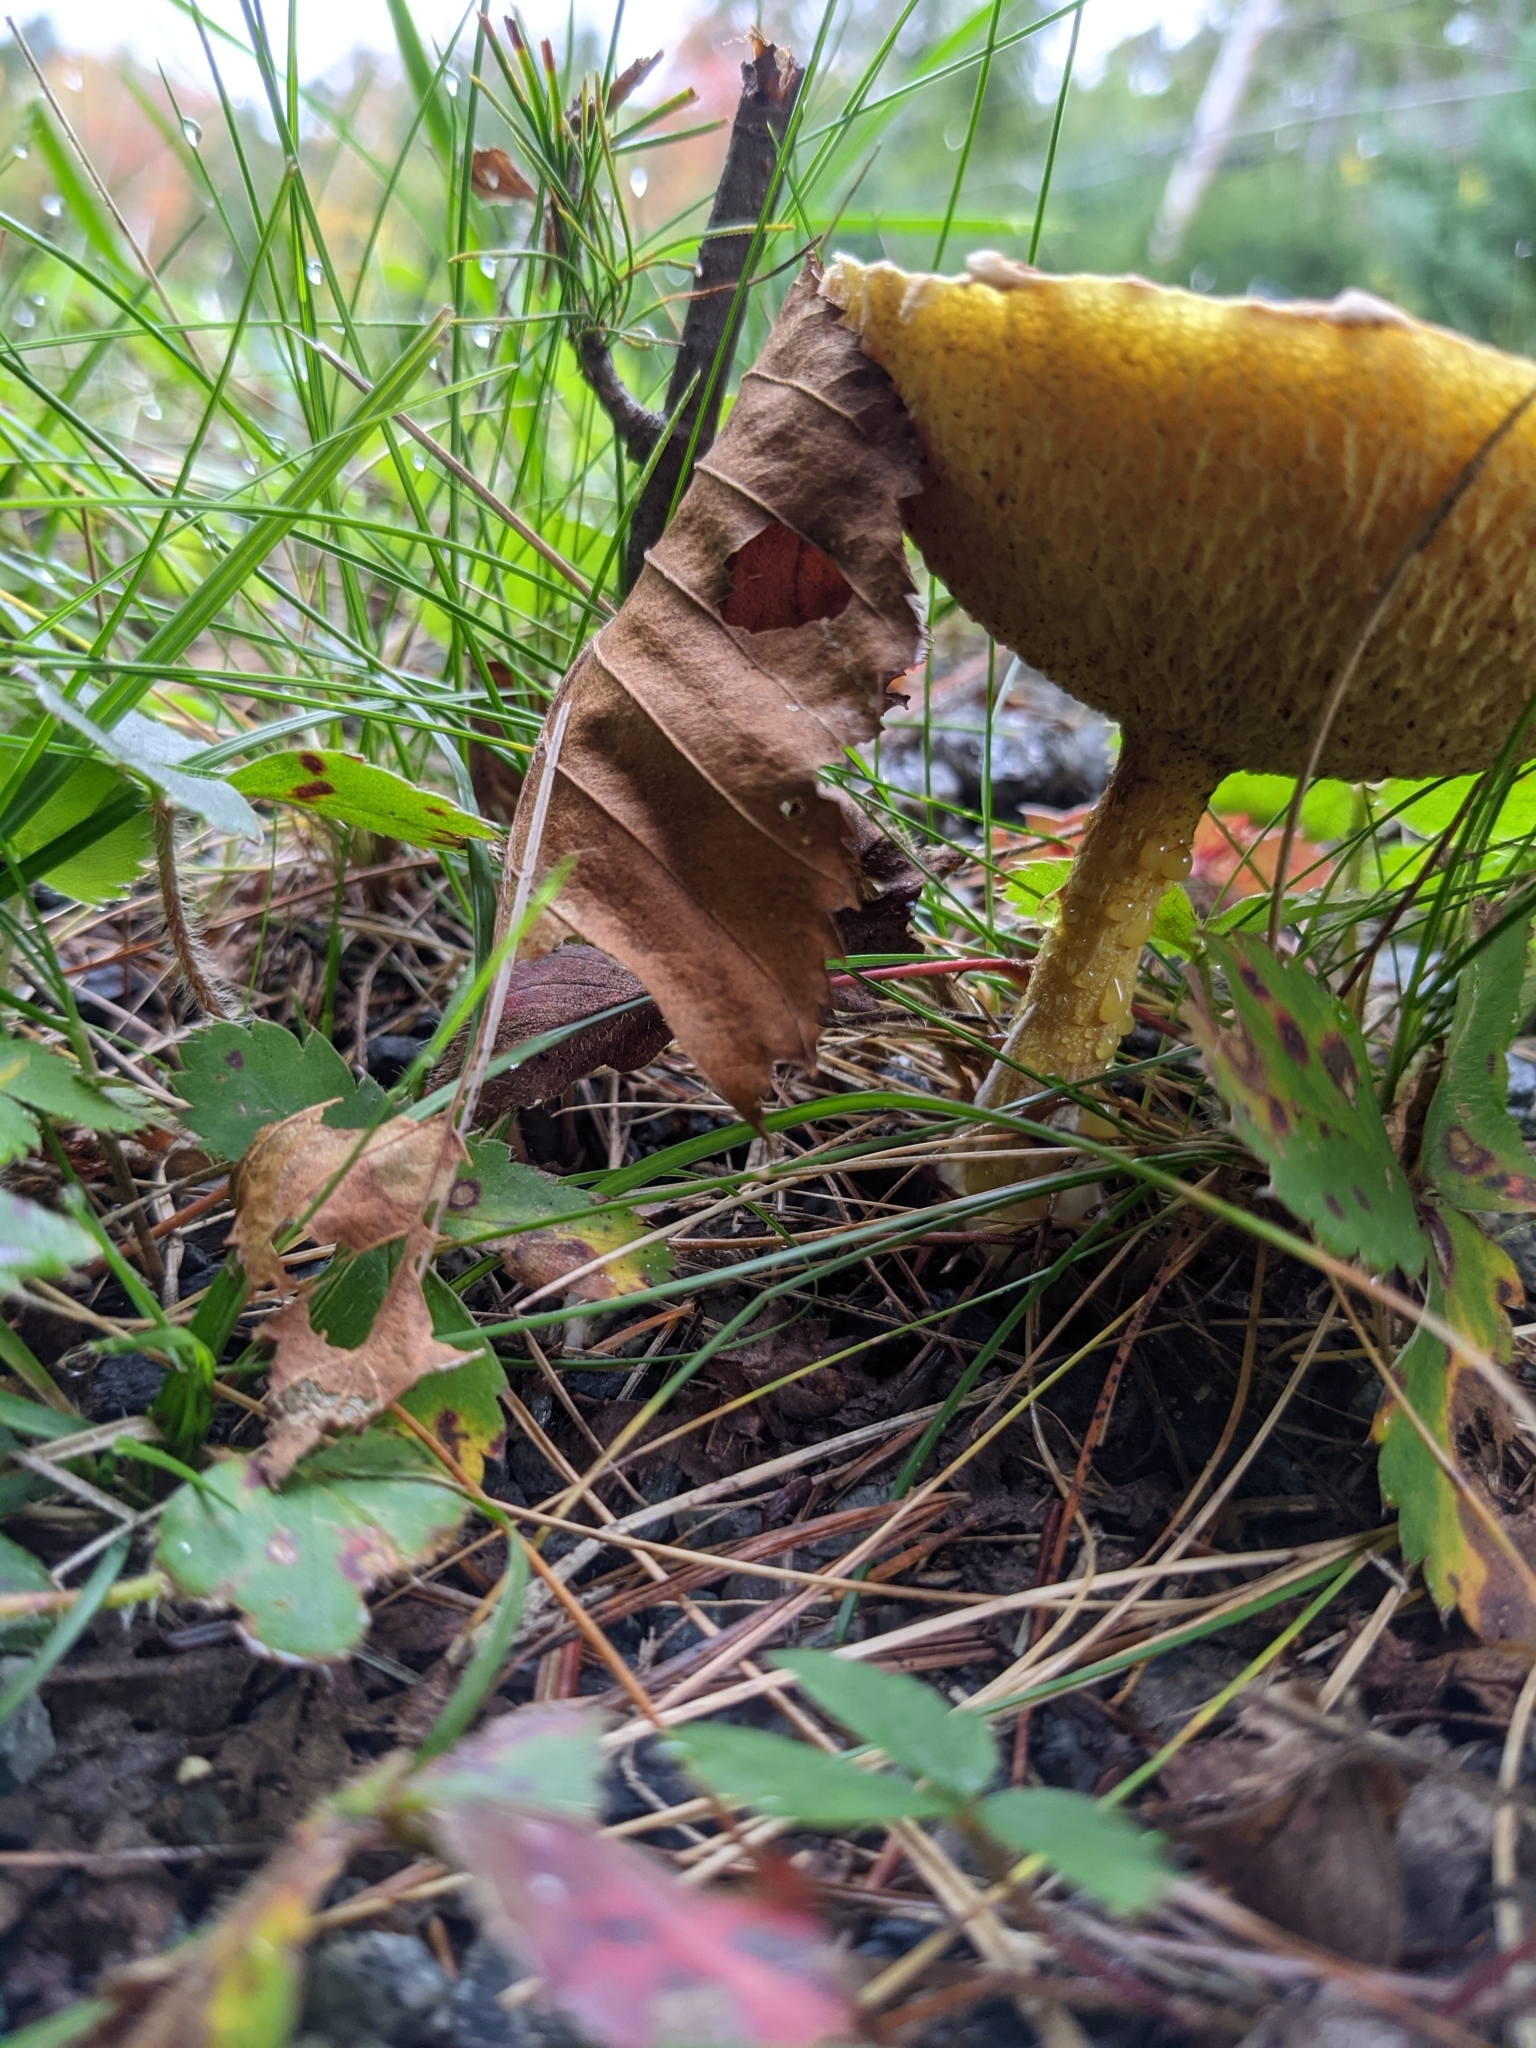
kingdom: Fungi
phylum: Basidiomycota
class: Agaricomycetes
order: Boletales
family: Suillaceae
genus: Suillus
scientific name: Suillus americanus
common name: Chicken fat mushroom
